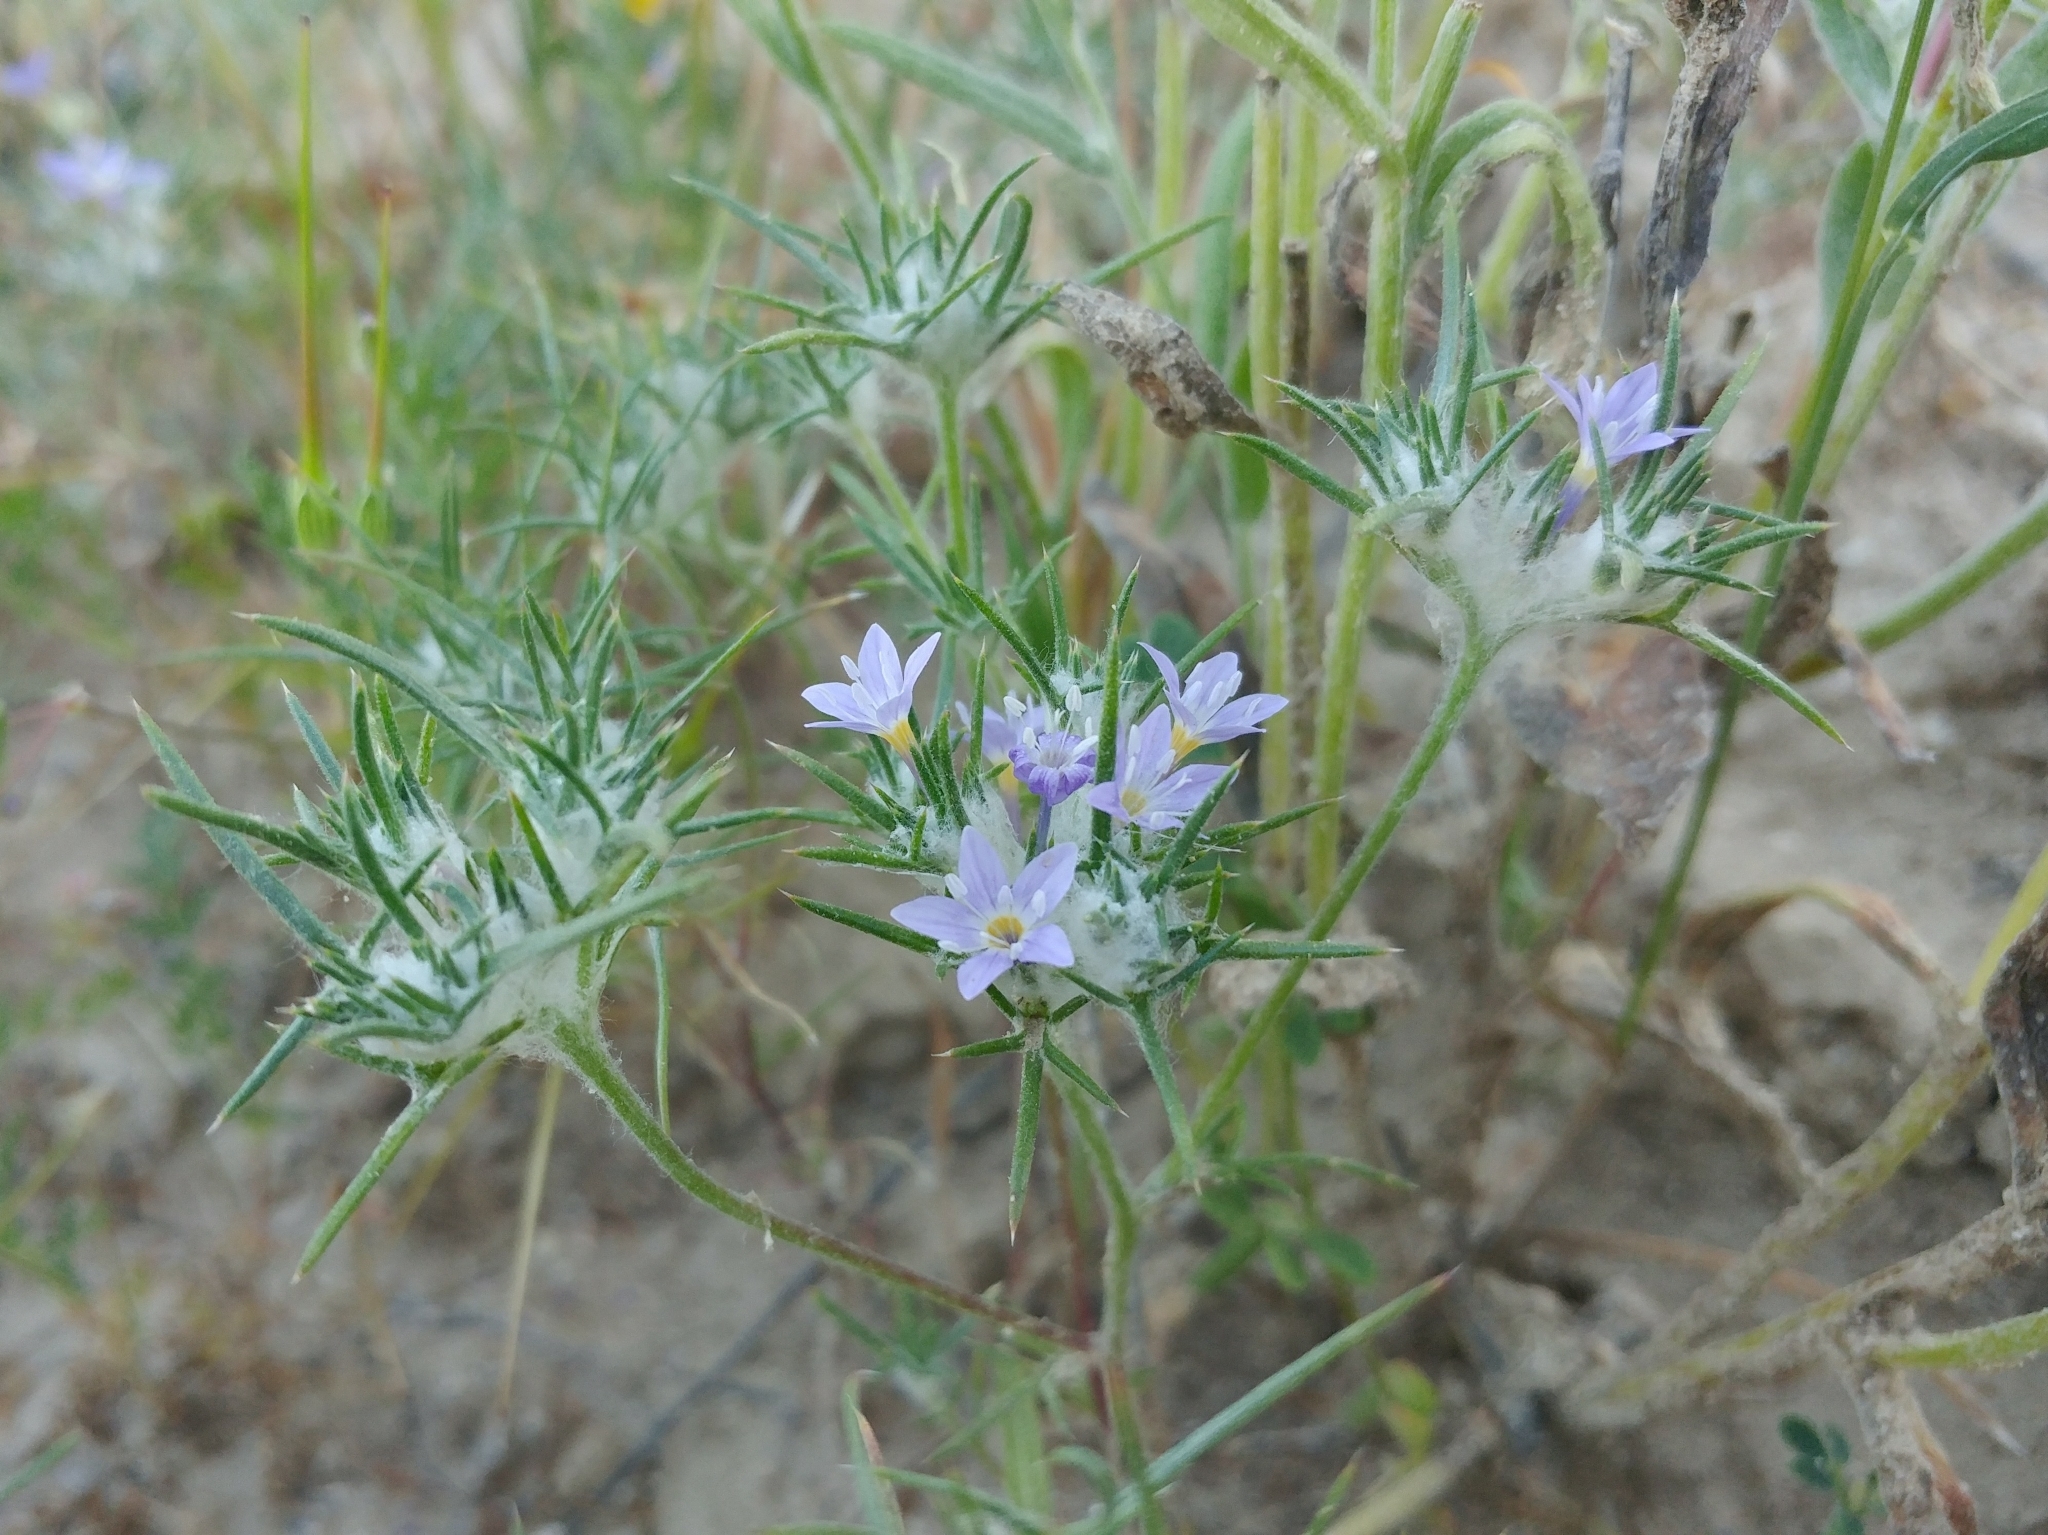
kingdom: Plantae
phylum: Tracheophyta
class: Magnoliopsida
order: Ericales
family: Polemoniaceae
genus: Eriastrum
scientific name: Eriastrum pluriflorum
